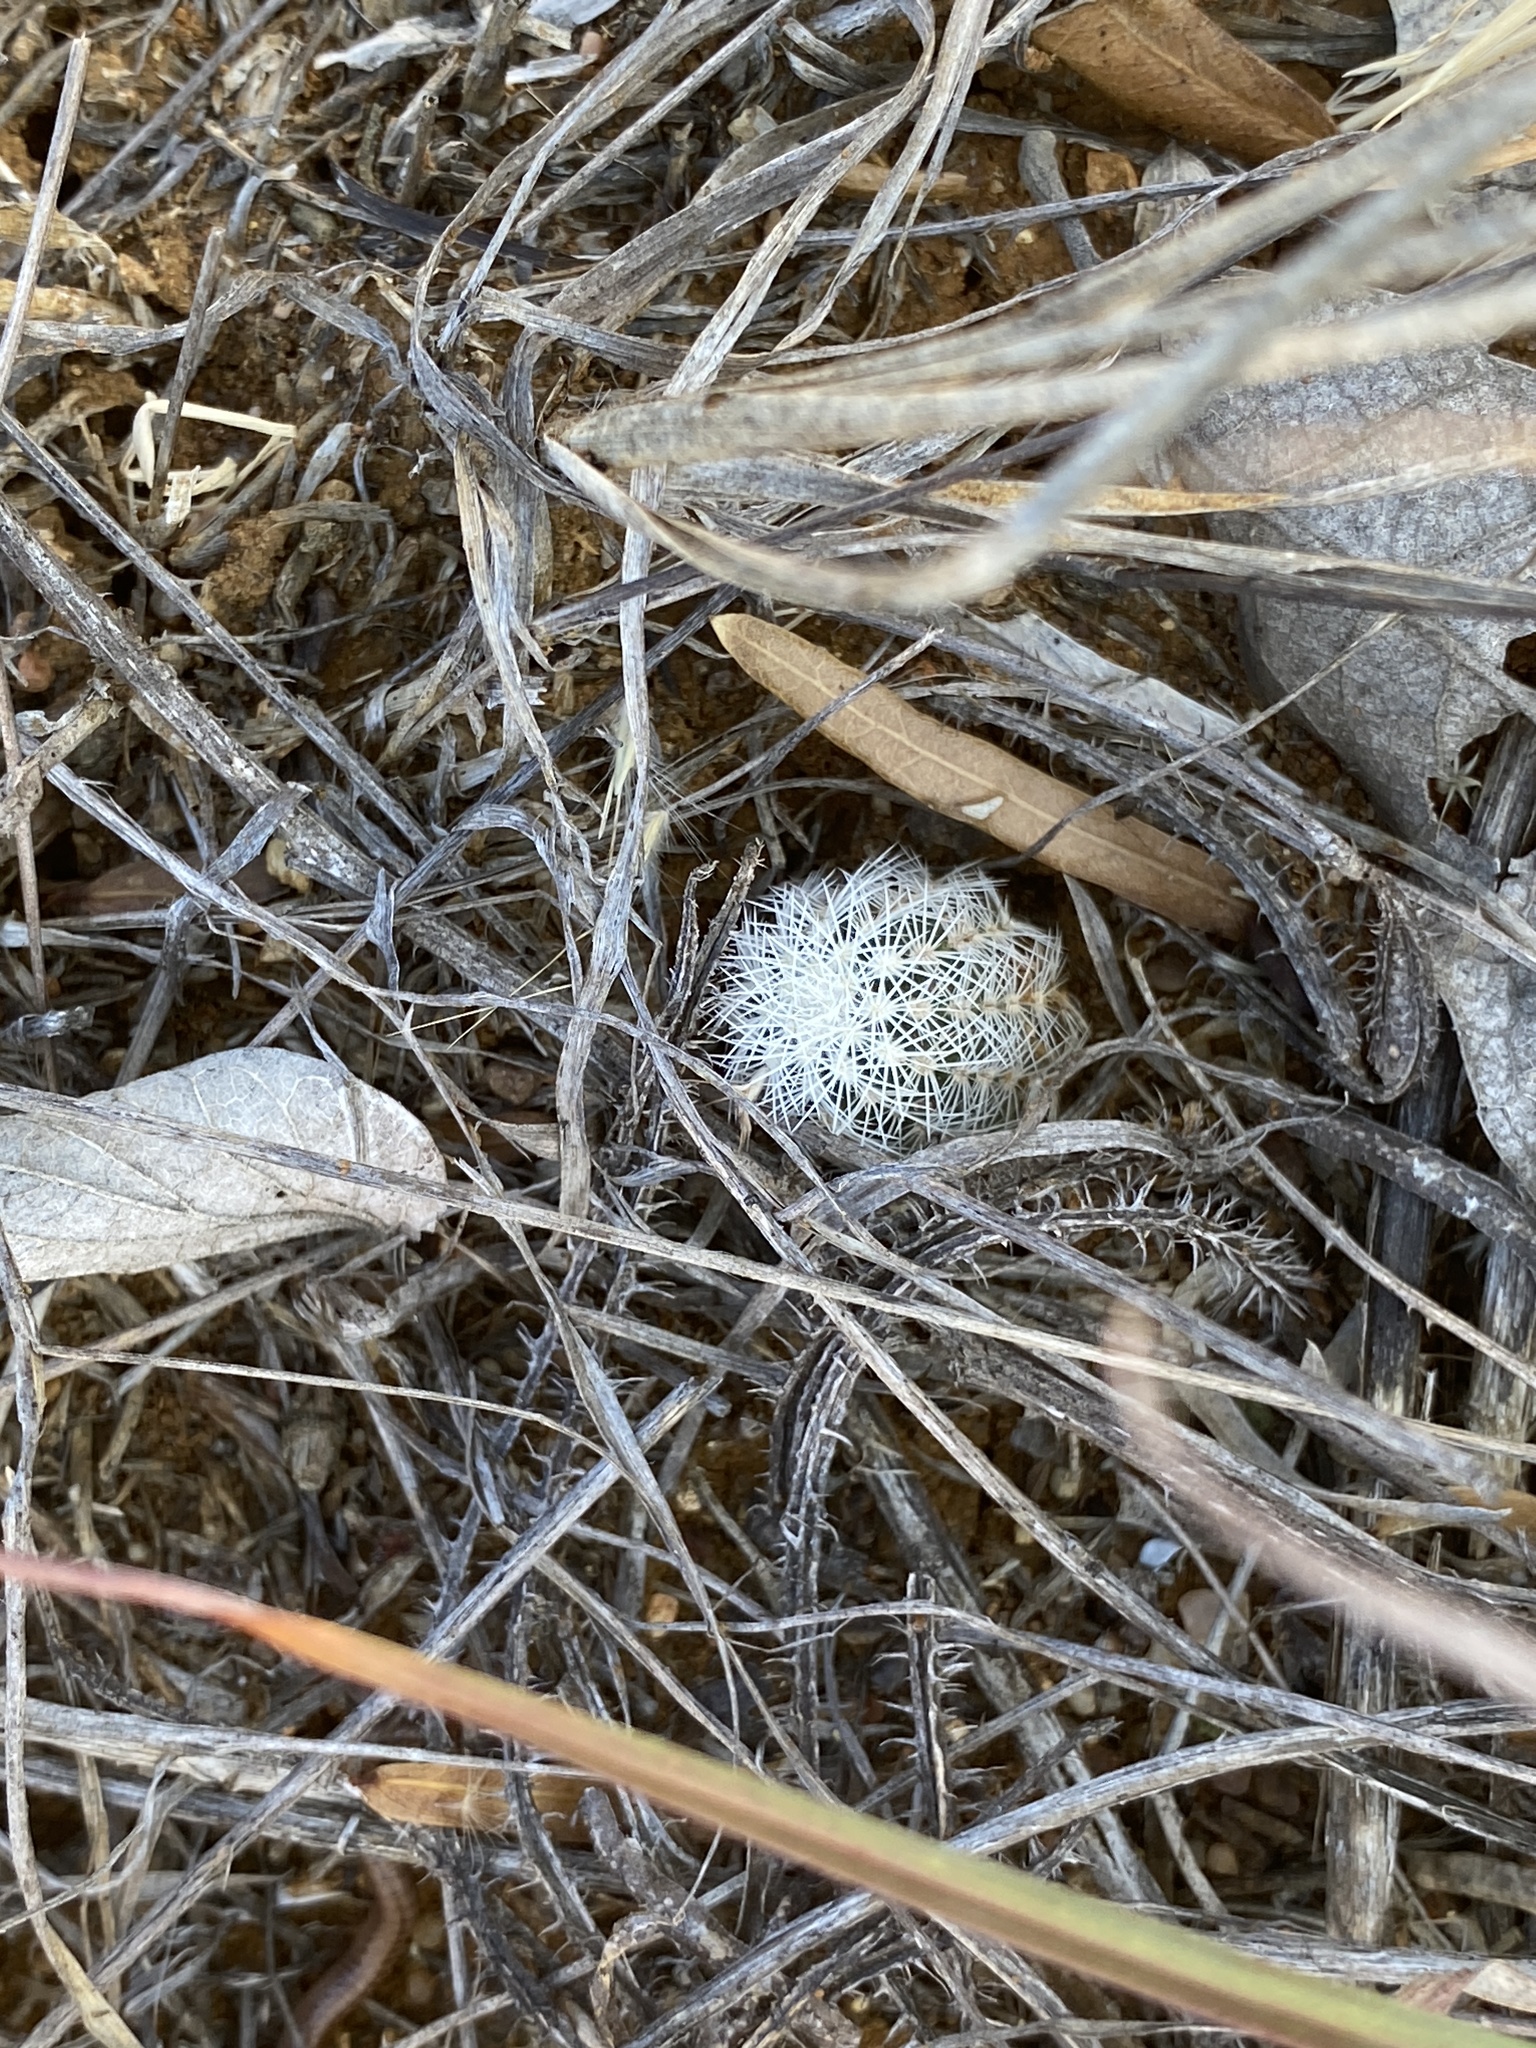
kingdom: Plantae
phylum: Tracheophyta
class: Magnoliopsida
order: Caryophyllales
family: Cactaceae
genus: Echinocereus
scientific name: Echinocereus reichenbachii
